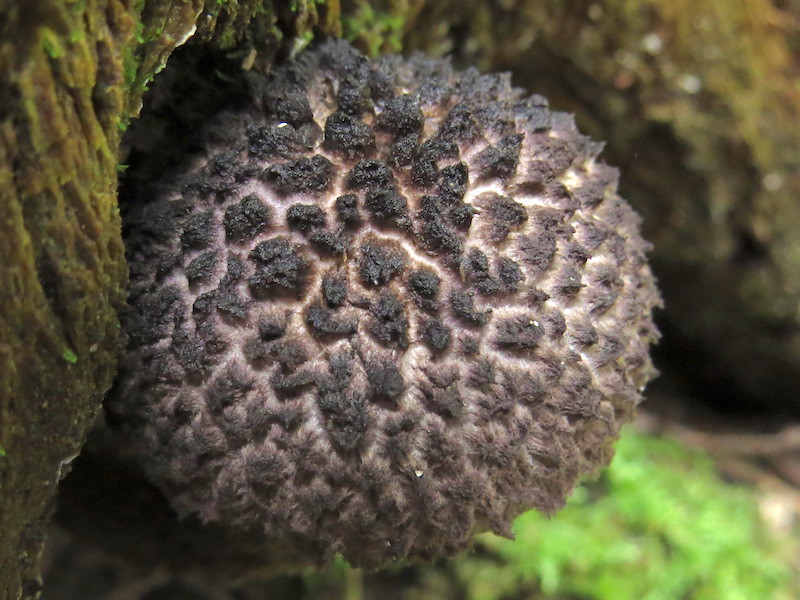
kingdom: Fungi
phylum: Basidiomycota
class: Agaricomycetes
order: Boletales
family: Boletaceae
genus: Strobilomyces
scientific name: Strobilomyces strobilaceus
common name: Old man of the woods
